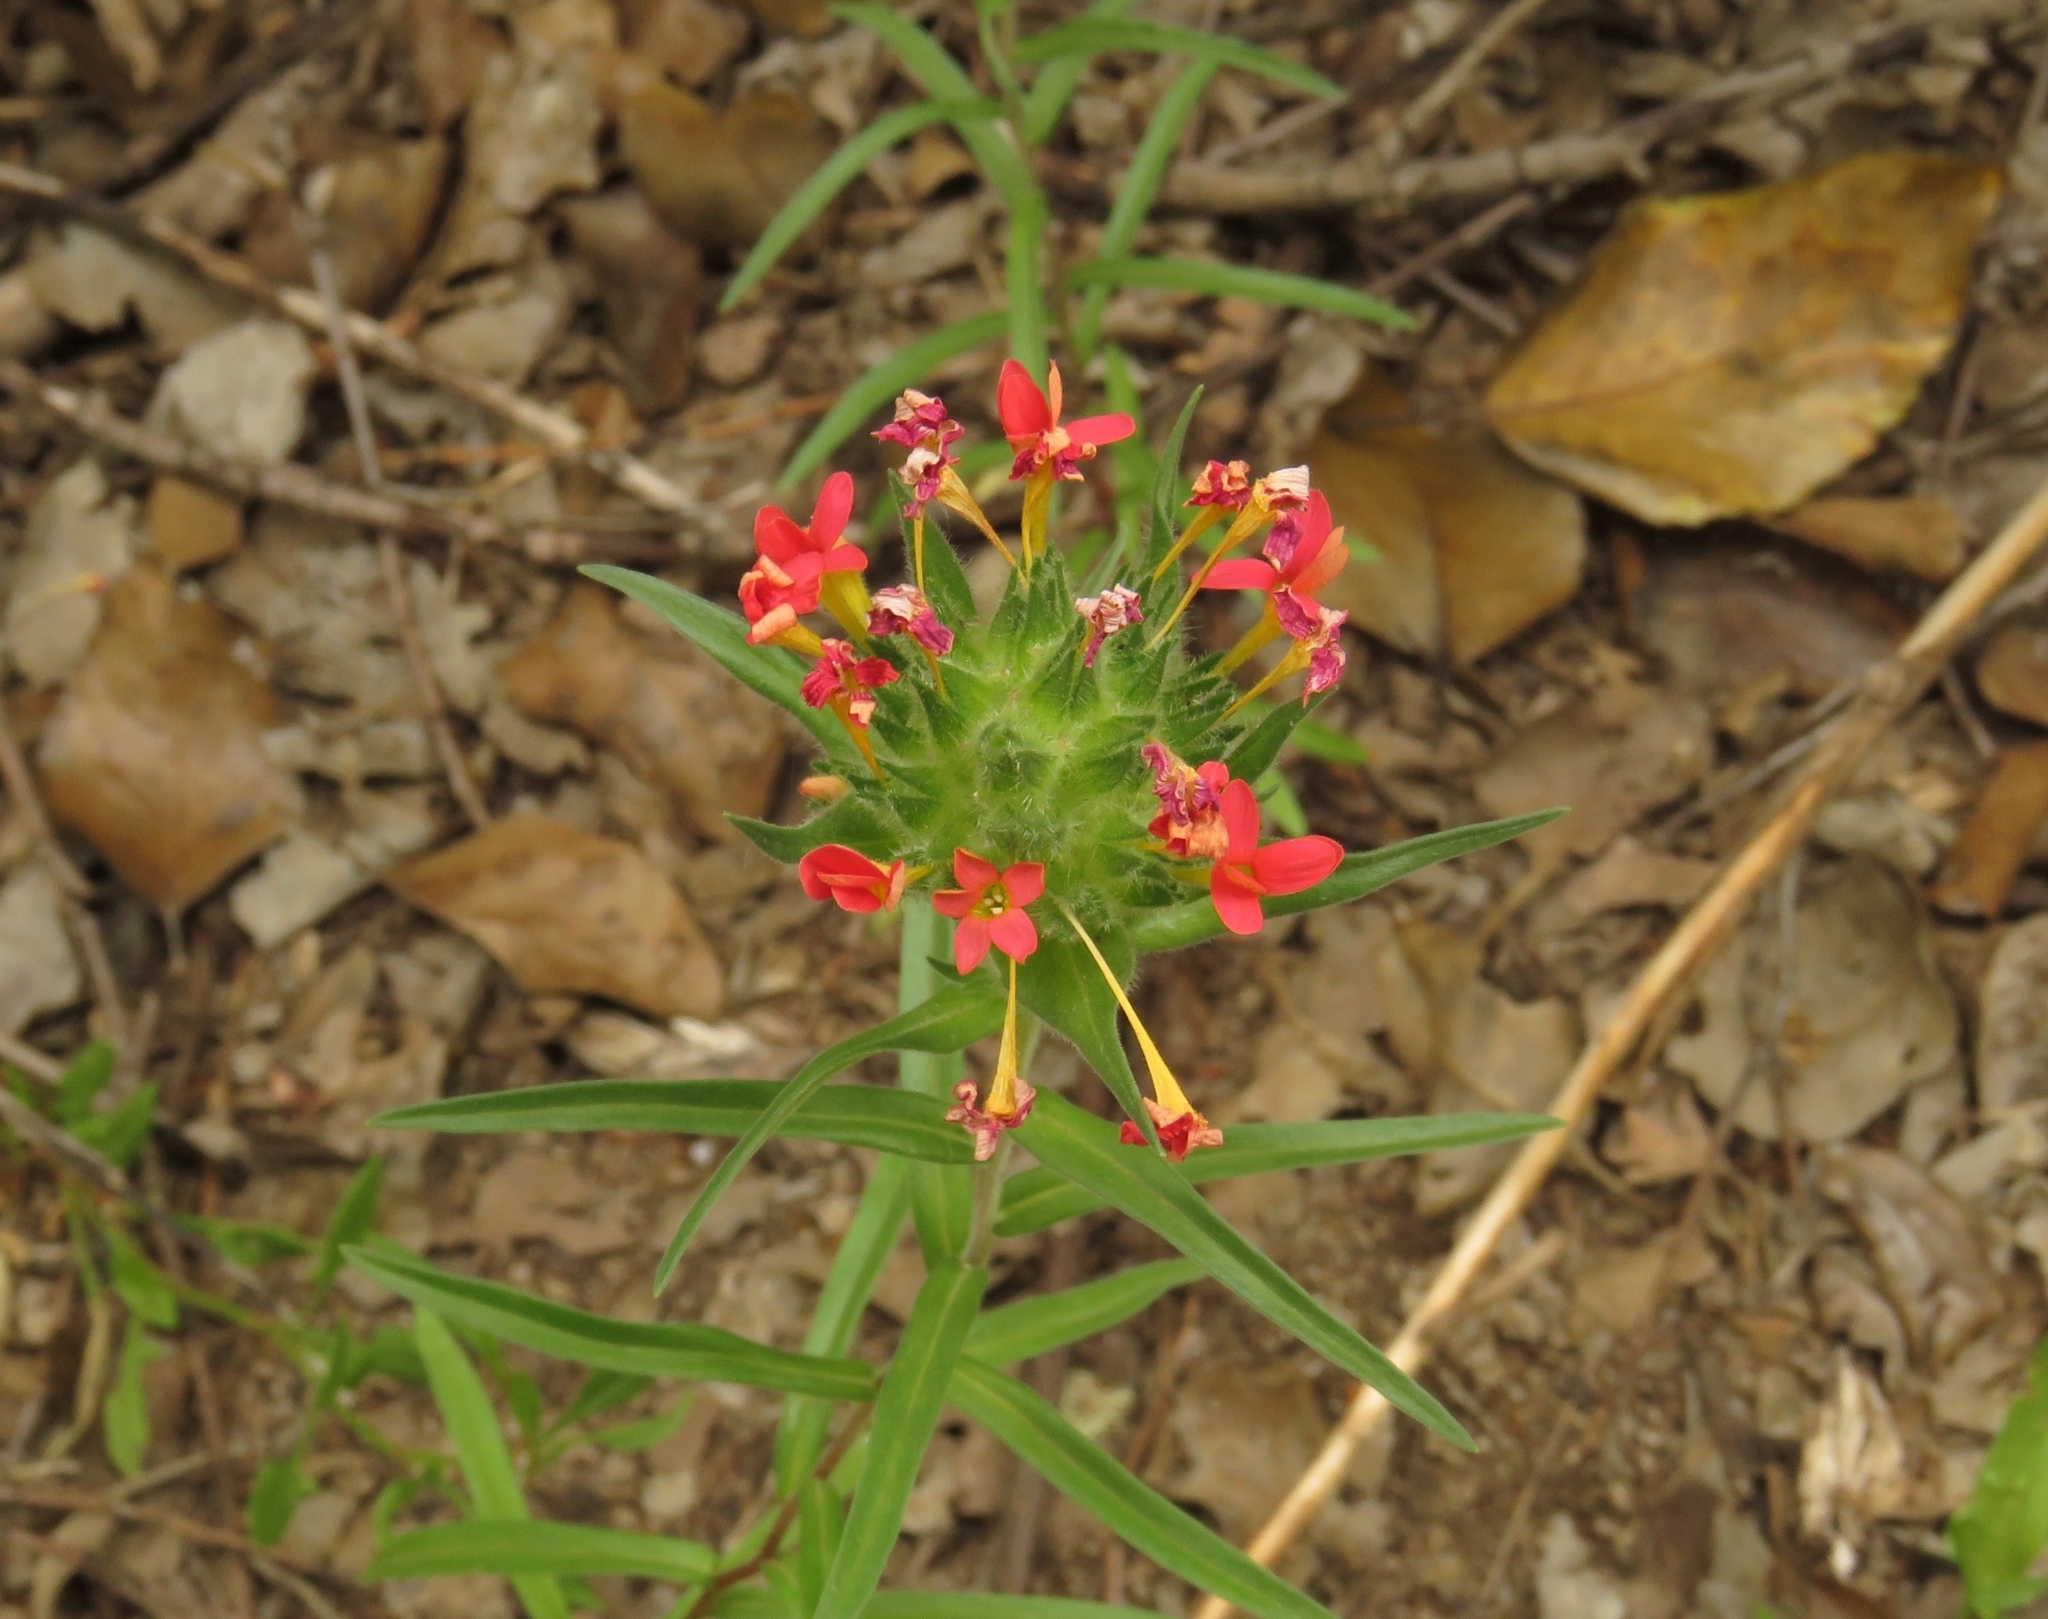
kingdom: Plantae
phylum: Tracheophyta
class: Magnoliopsida
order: Ericales
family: Polemoniaceae
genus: Collomia
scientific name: Collomia biflora
